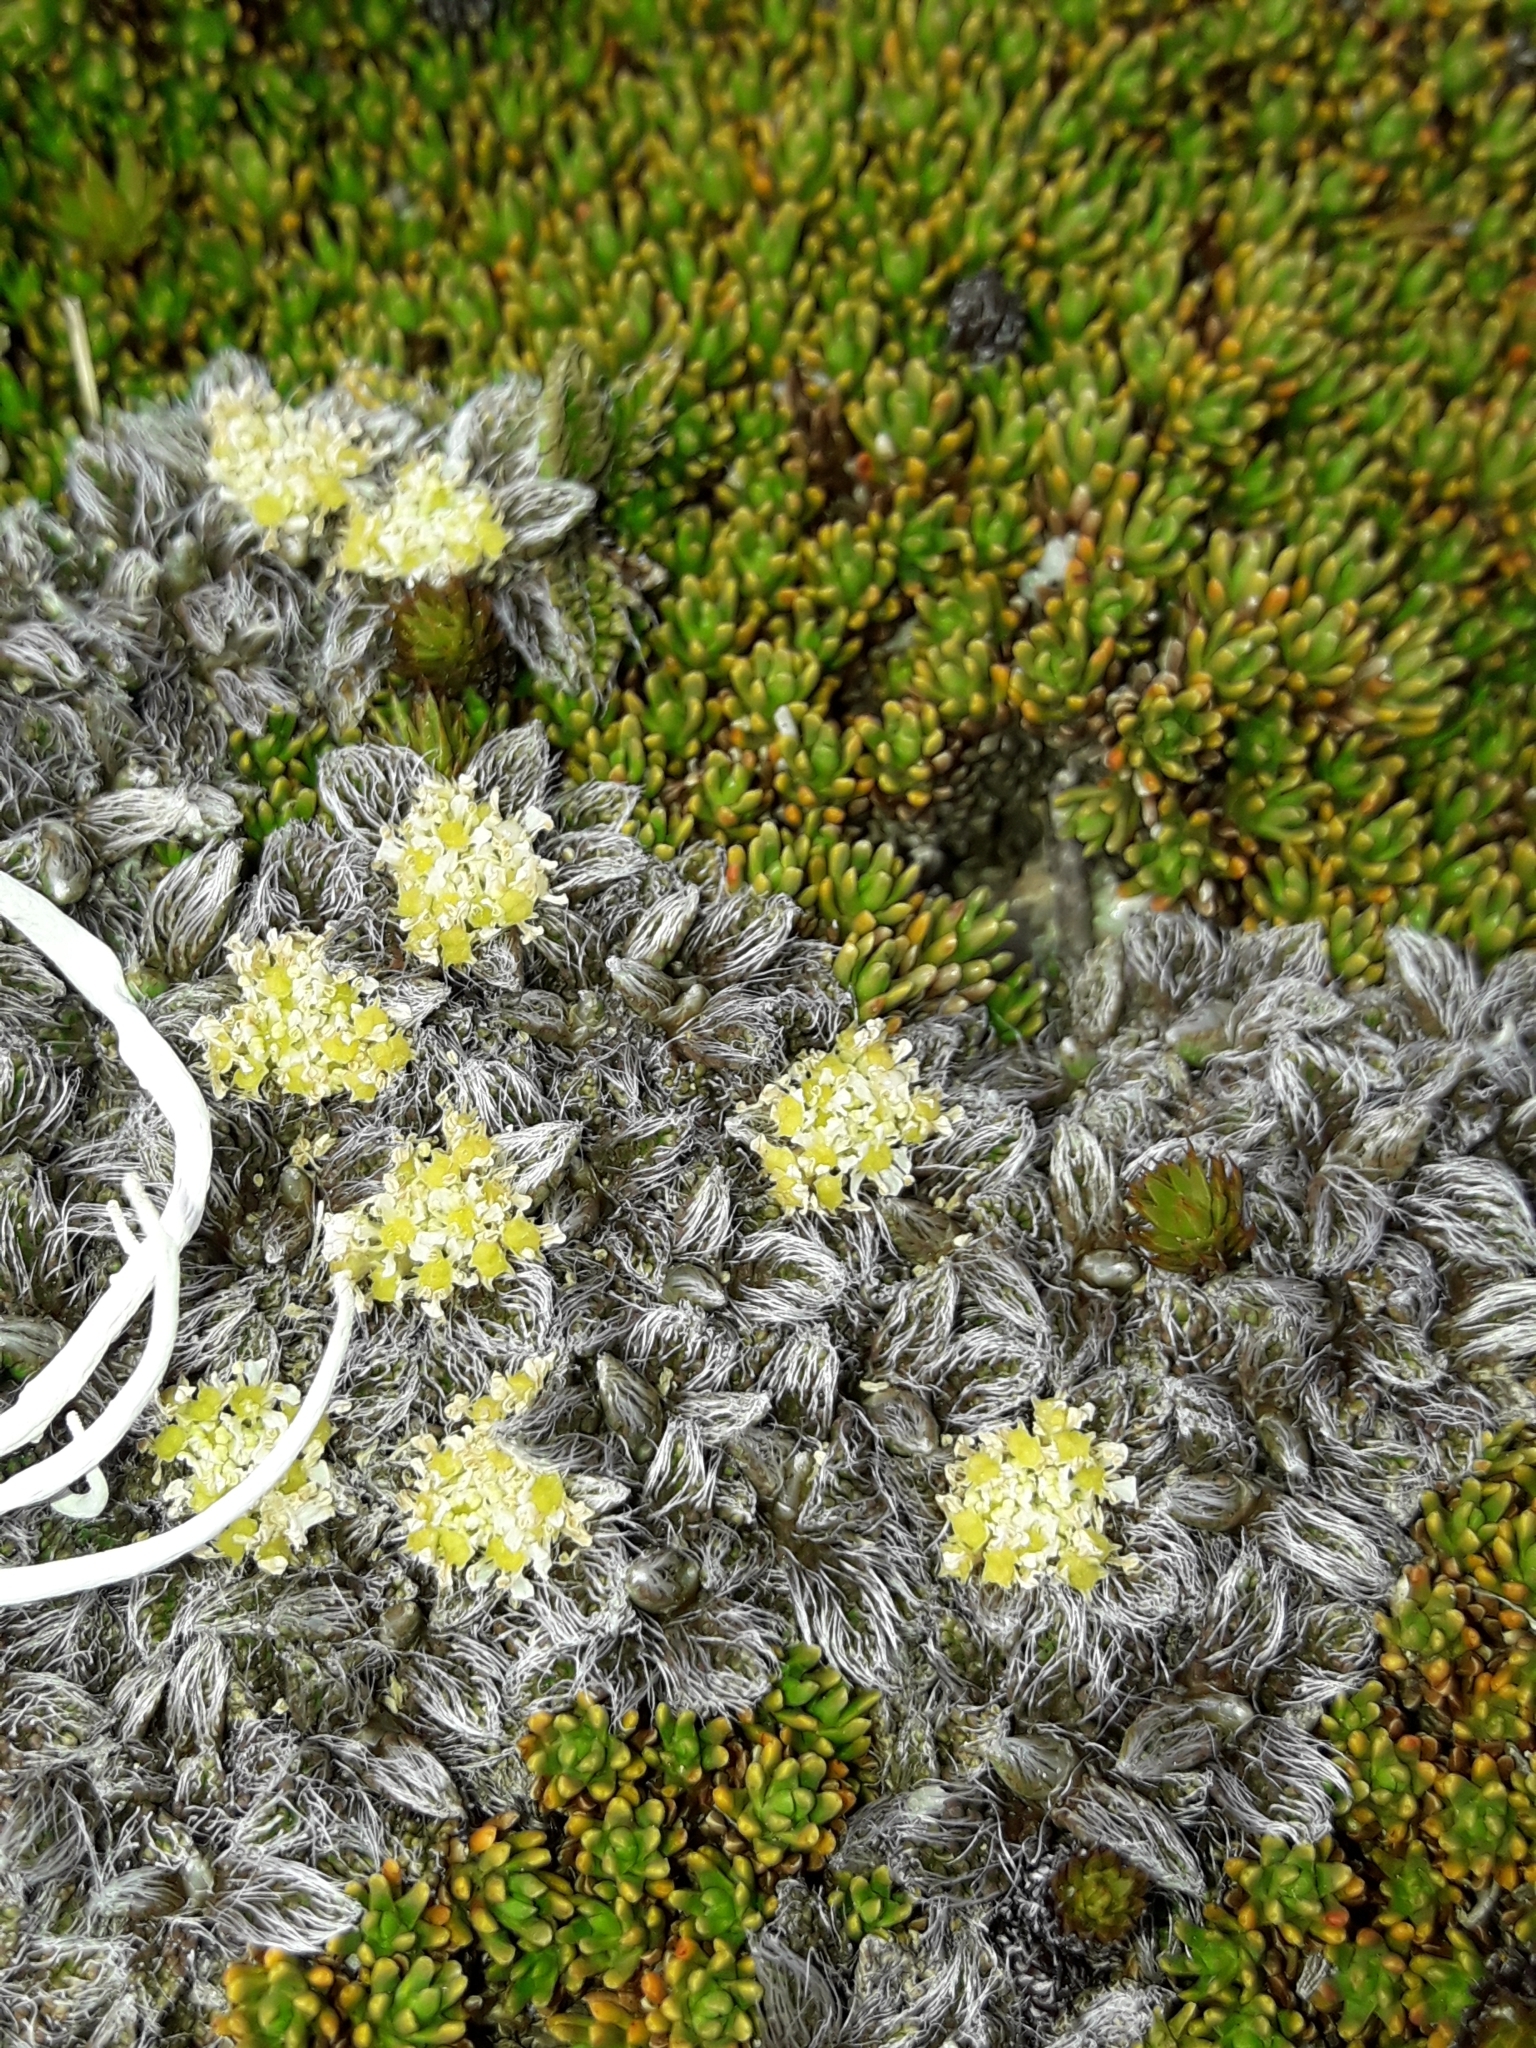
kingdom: Plantae
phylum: Tracheophyta
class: Magnoliopsida
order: Apiales
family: Apiaceae
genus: Anisotome
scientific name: Anisotome imbricata
